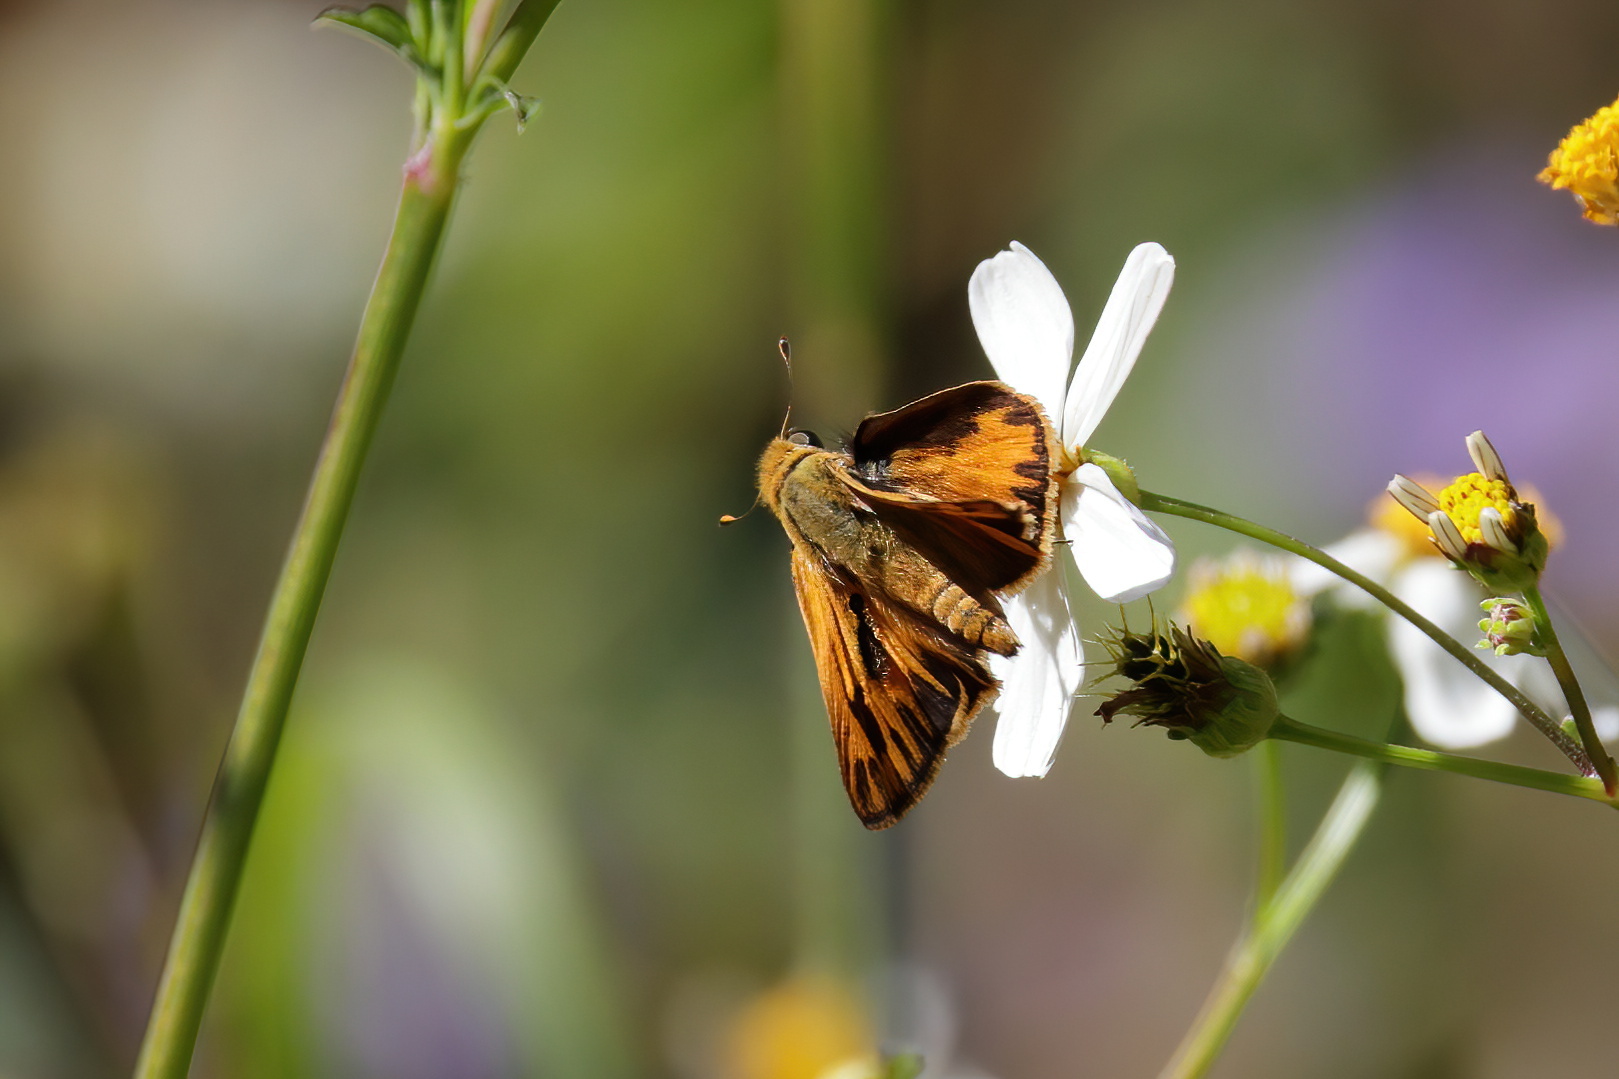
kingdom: Animalia
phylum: Arthropoda
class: Insecta
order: Lepidoptera
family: Hesperiidae
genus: Hylephila
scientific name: Hylephila phyleus
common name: Fiery skipper
